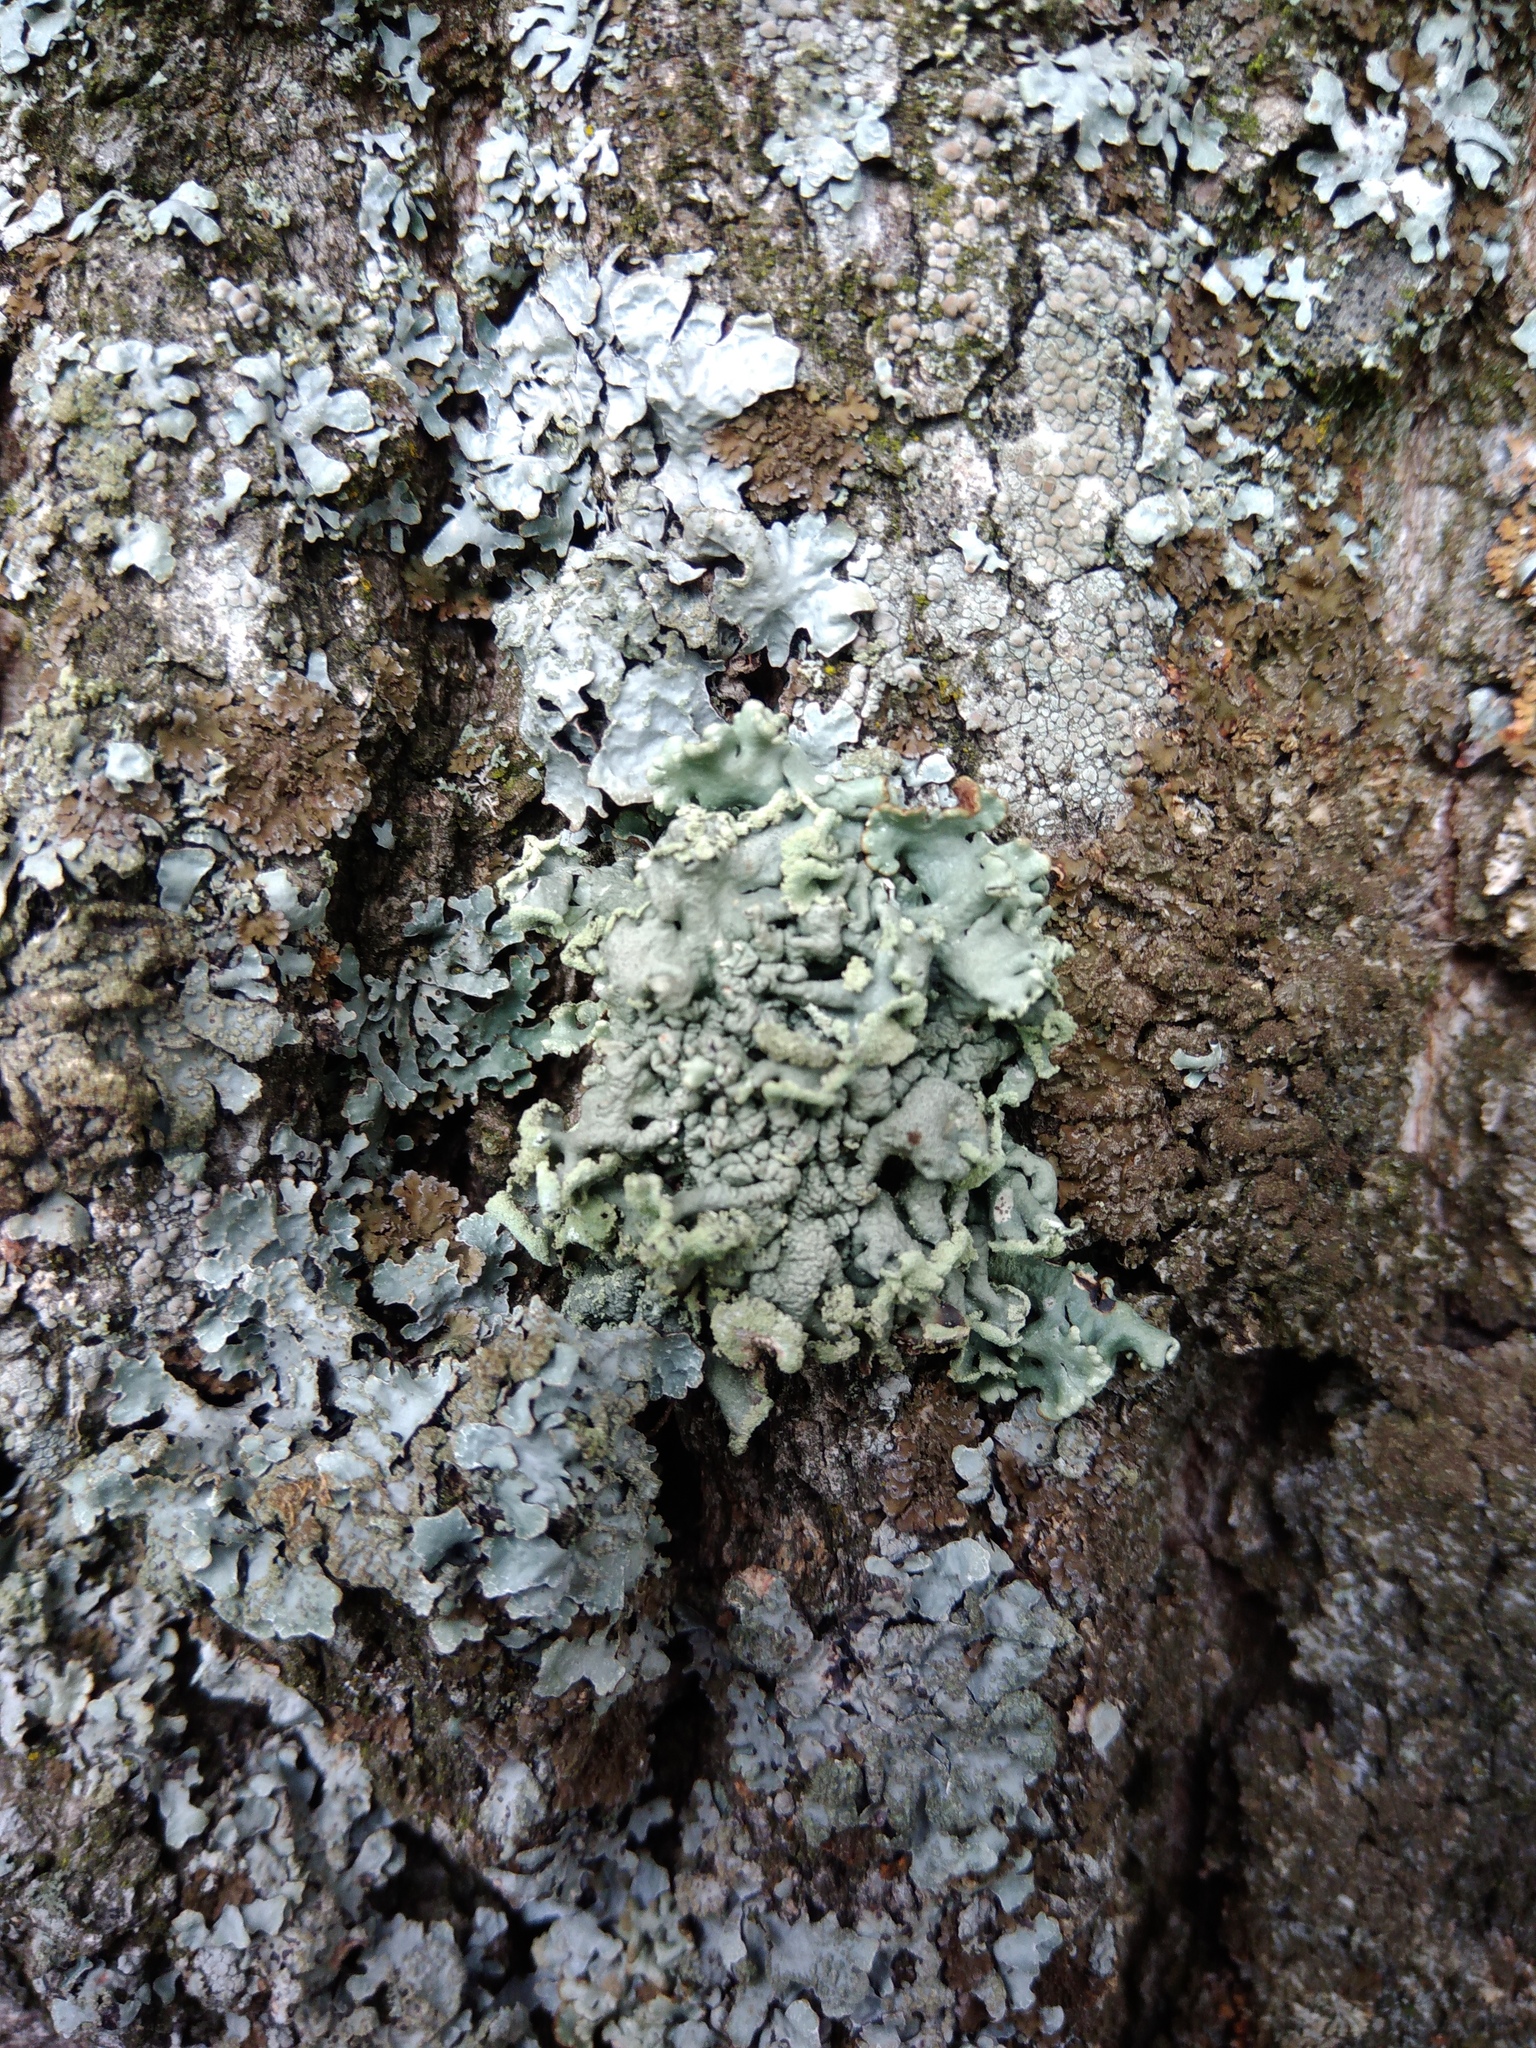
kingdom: Fungi
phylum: Ascomycota
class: Lecanoromycetes
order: Lecanorales
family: Parmeliaceae
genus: Hypogymnia
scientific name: Hypogymnia physodes
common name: Dark crottle
